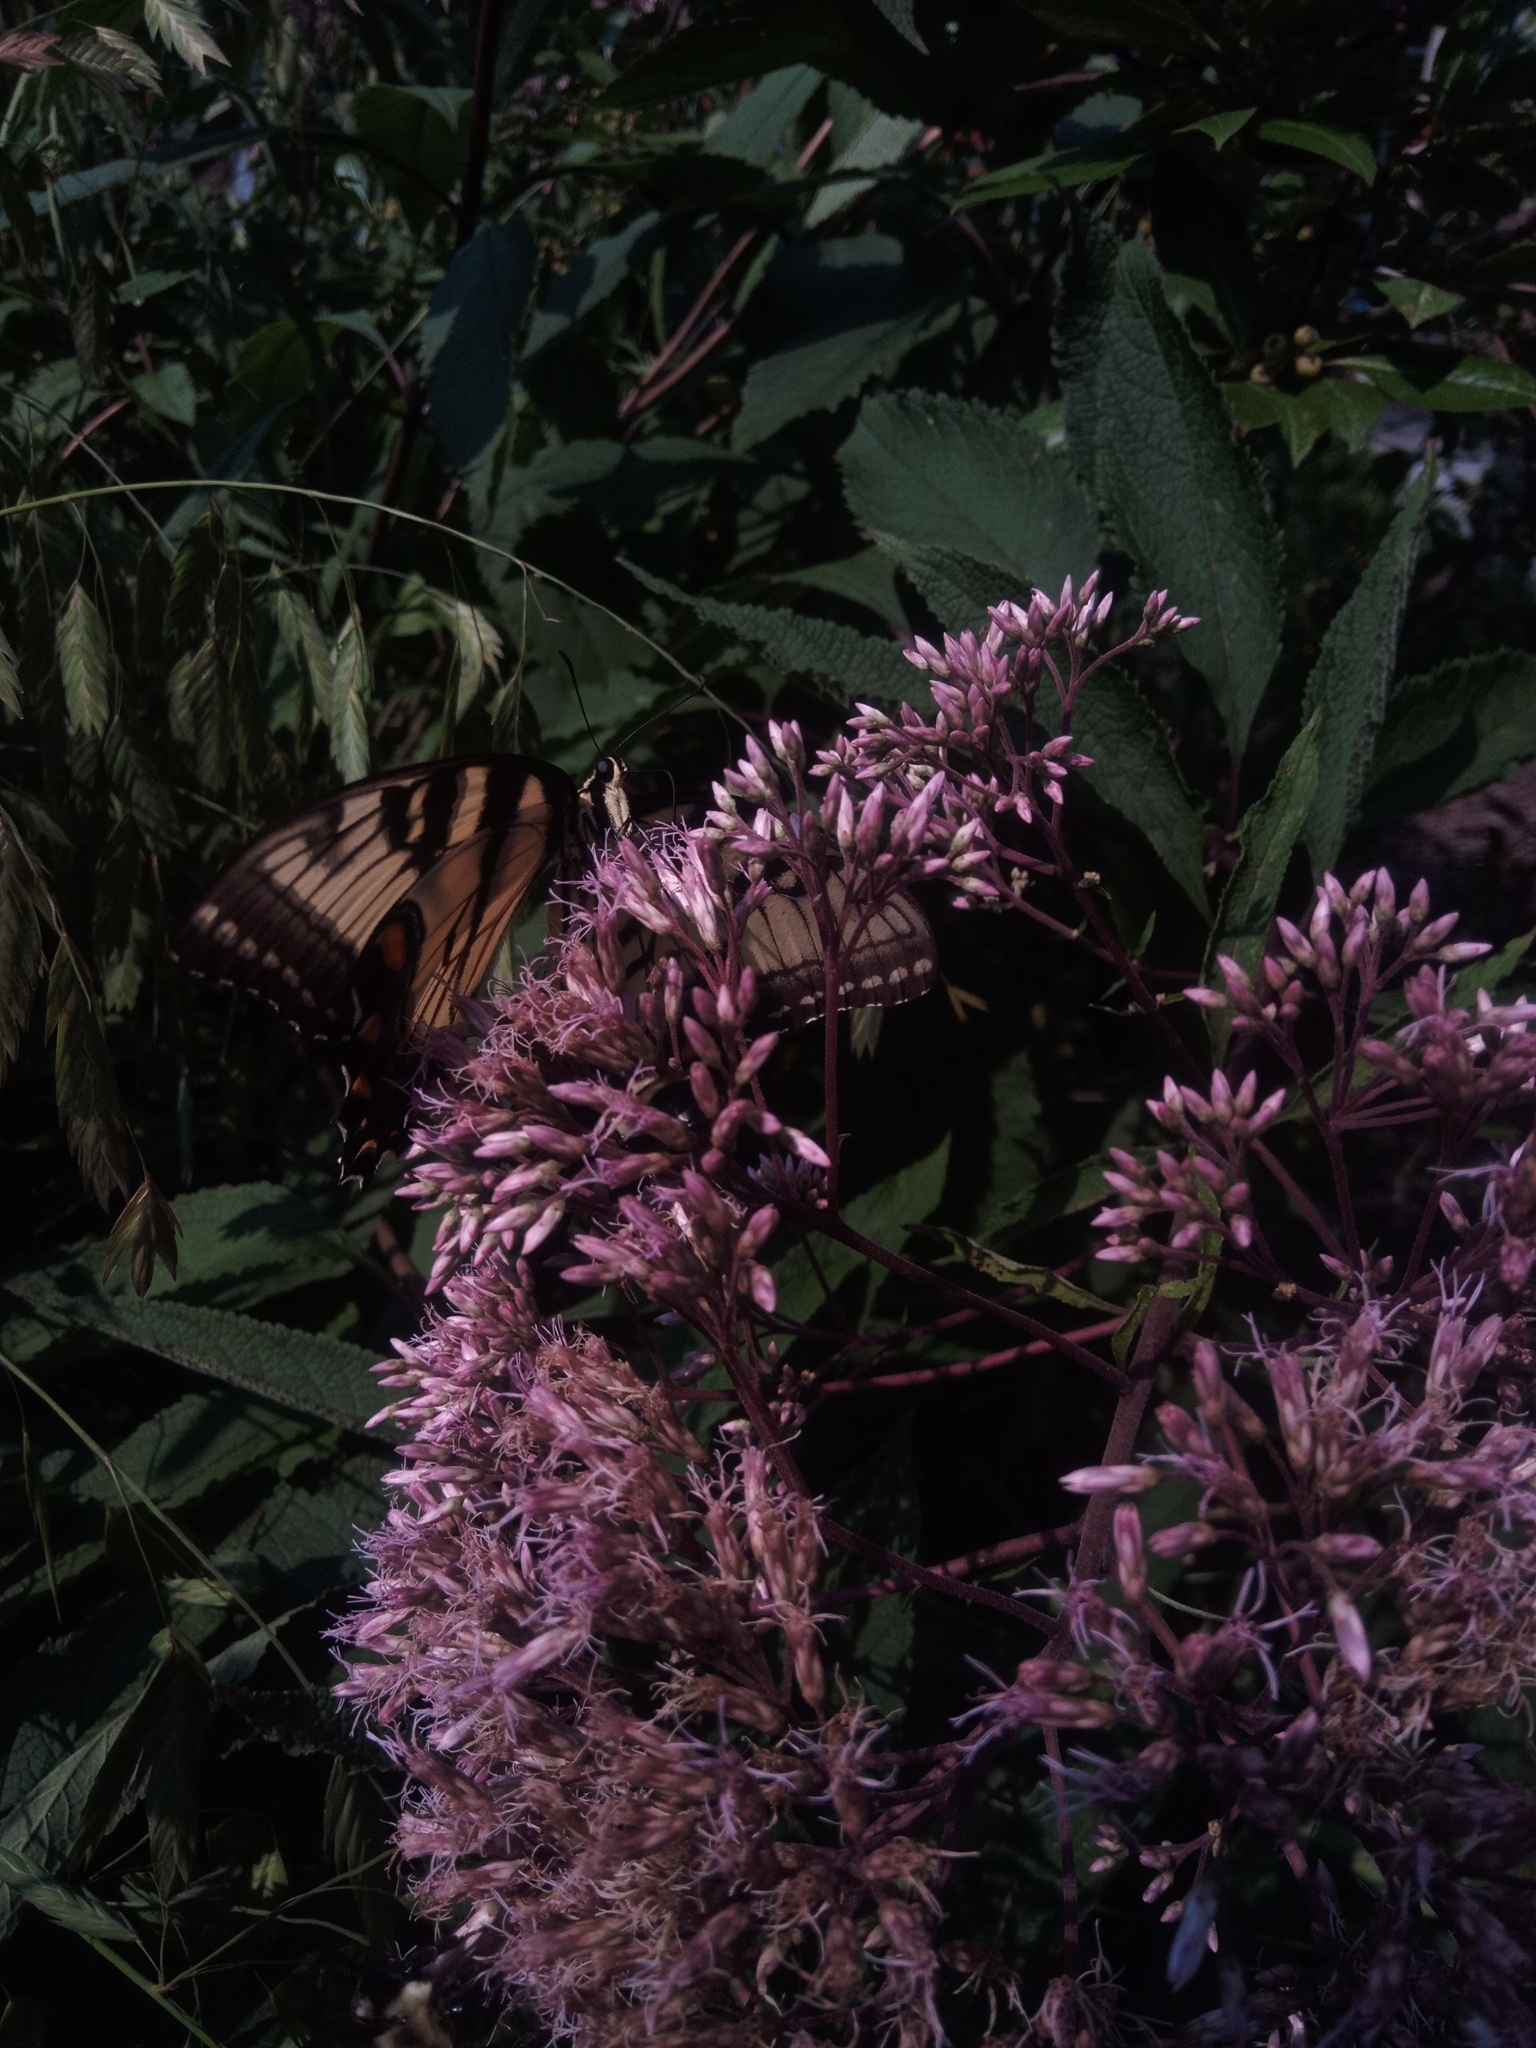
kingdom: Animalia
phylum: Arthropoda
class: Insecta
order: Lepidoptera
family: Papilionidae
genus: Papilio
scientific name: Papilio glaucus
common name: Tiger swallowtail
